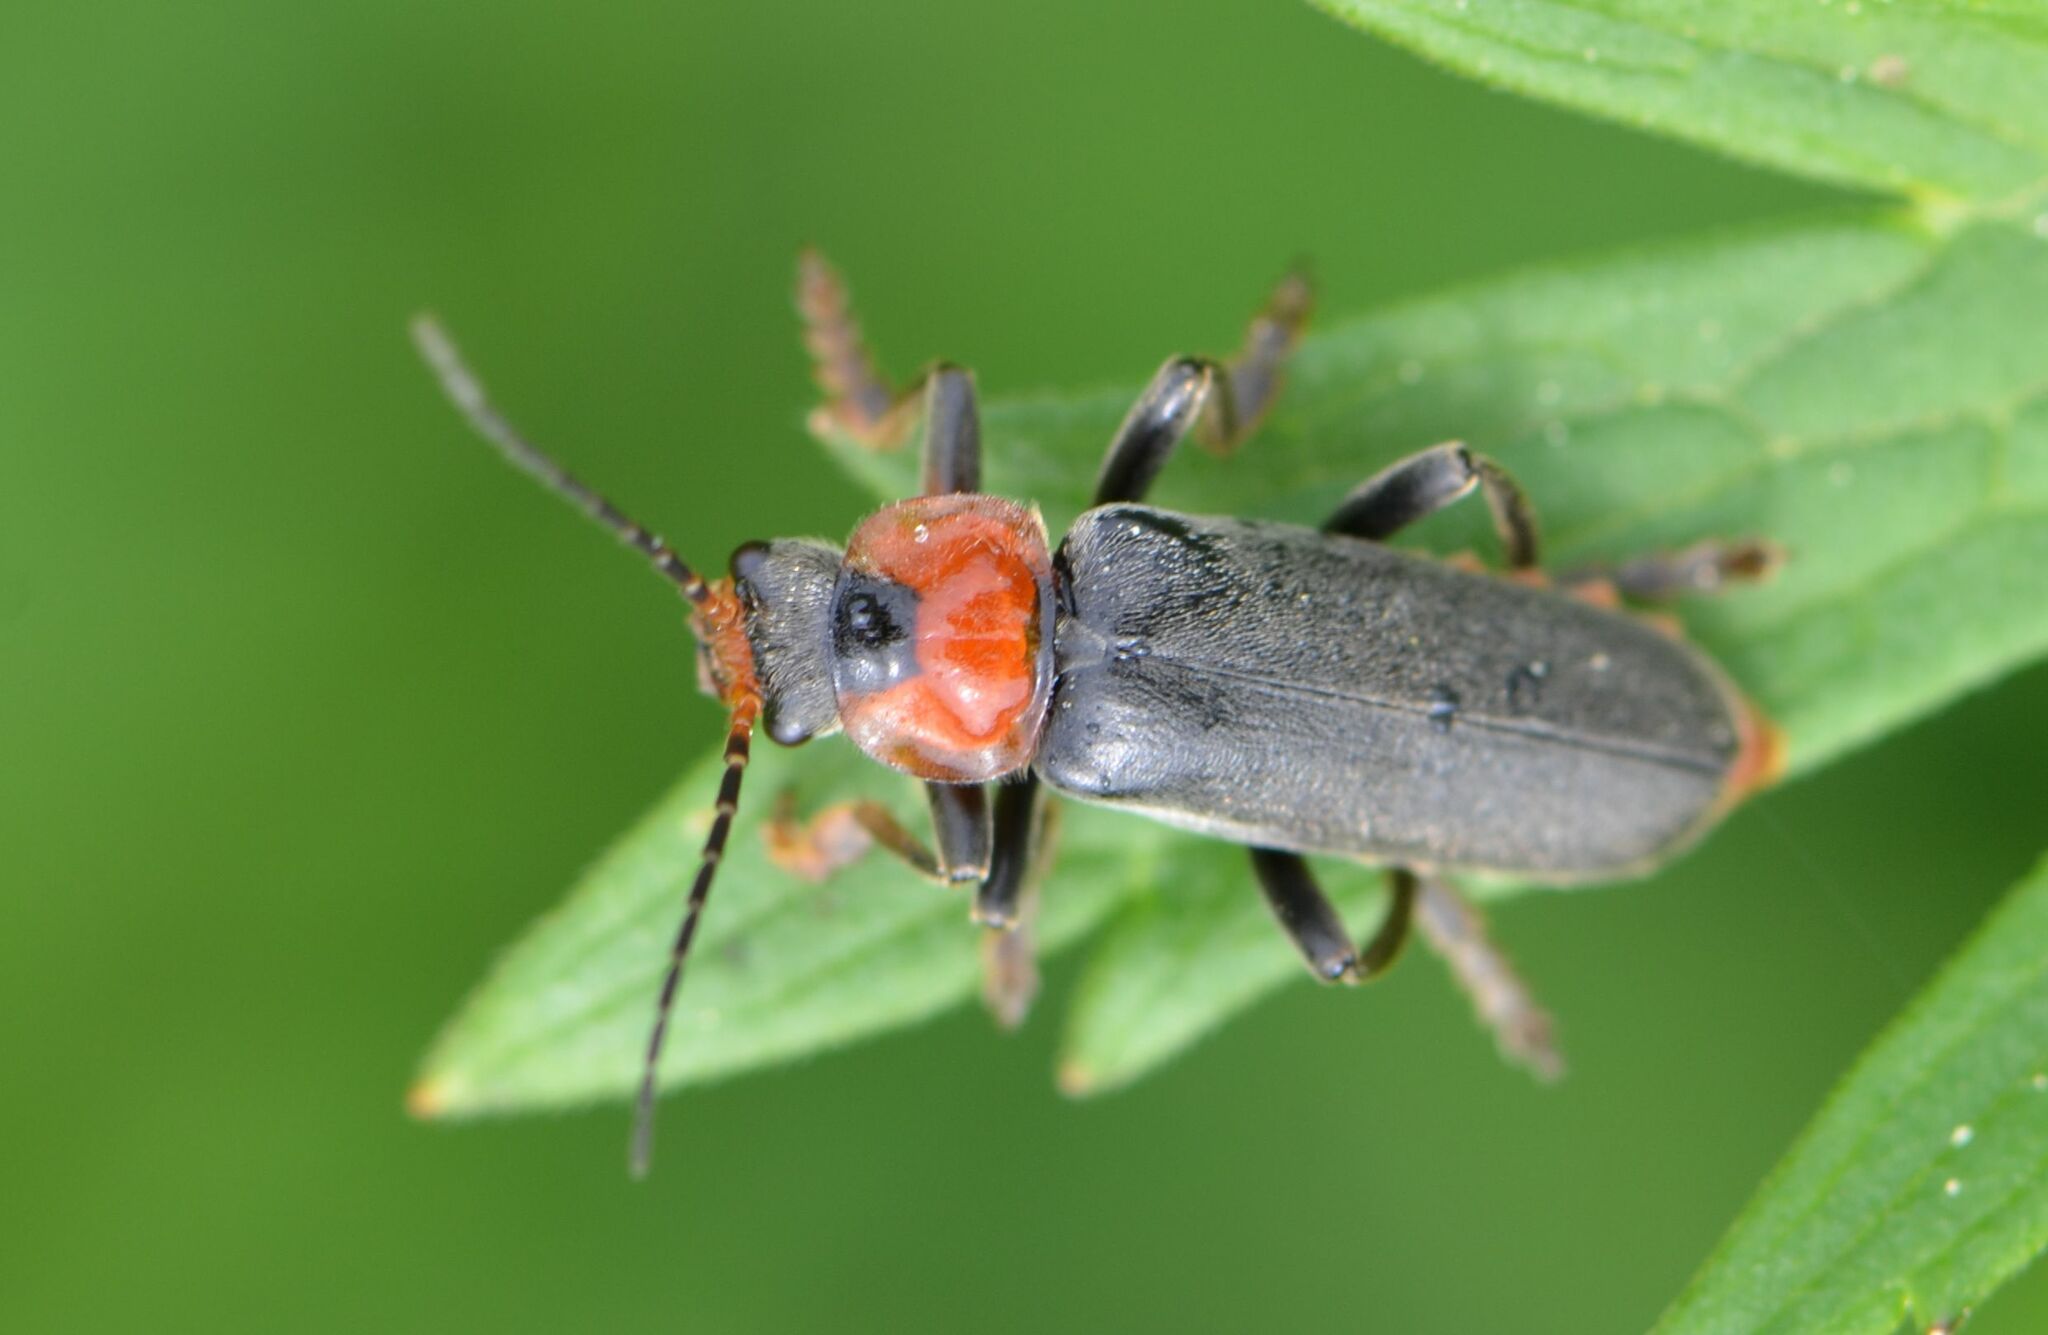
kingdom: Animalia
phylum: Arthropoda
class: Insecta
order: Coleoptera
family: Cantharidae
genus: Cantharis
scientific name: Cantharis fusca
